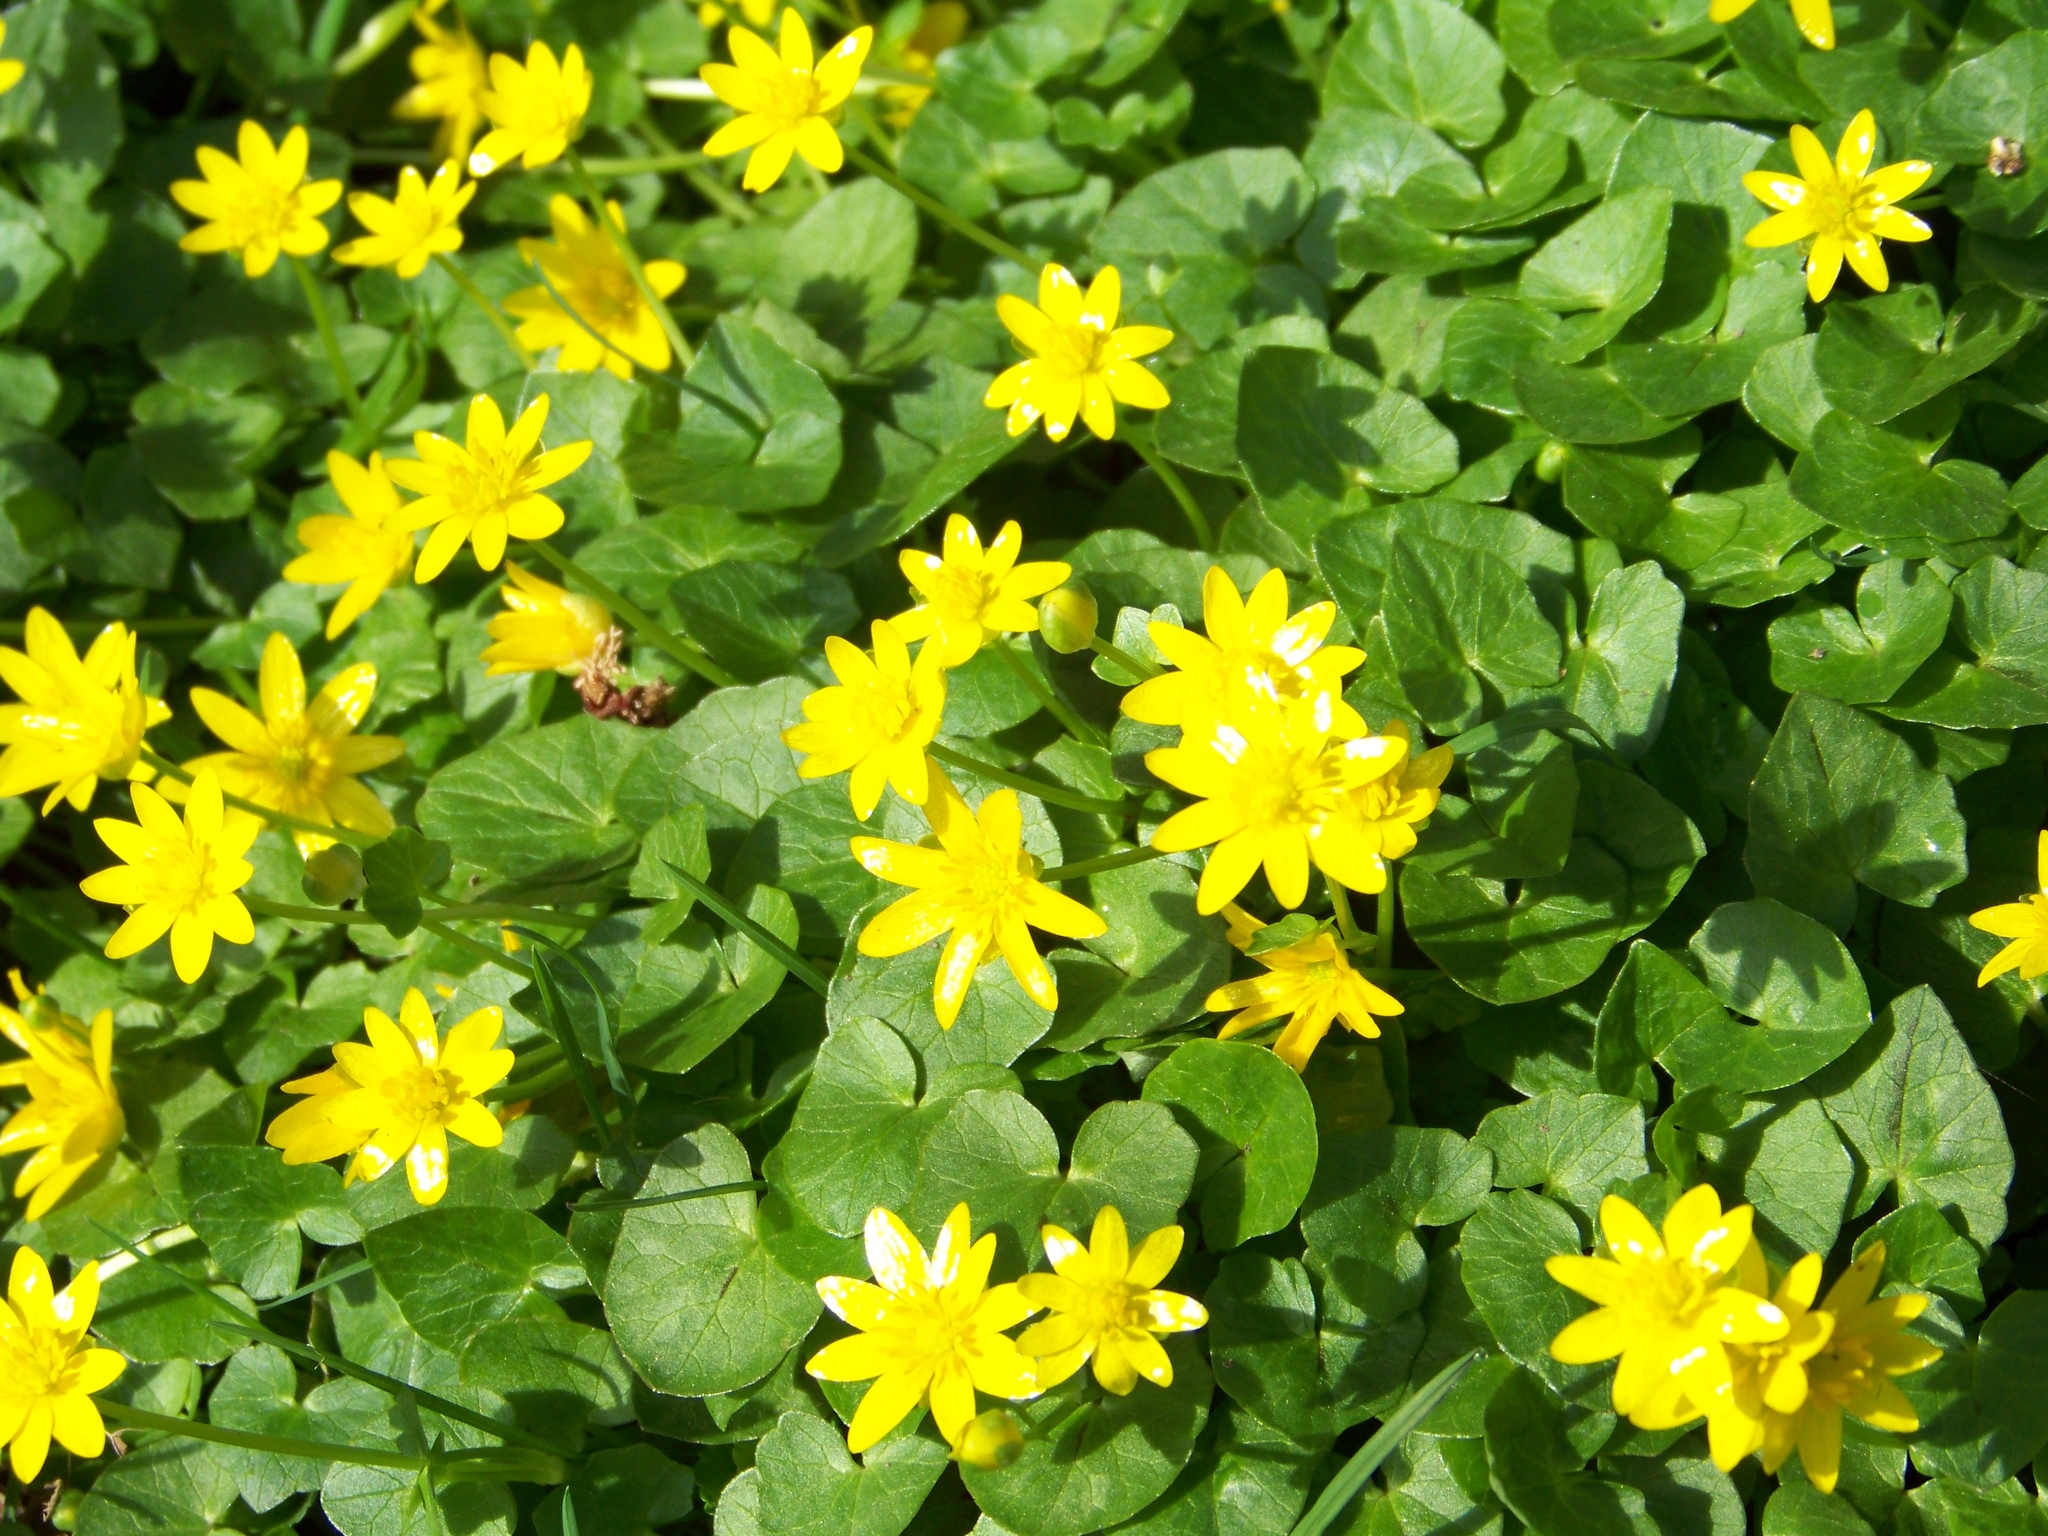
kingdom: Plantae
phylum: Tracheophyta
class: Magnoliopsida
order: Ranunculales
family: Ranunculaceae
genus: Ficaria
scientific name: Ficaria verna
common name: Lesser celandine
